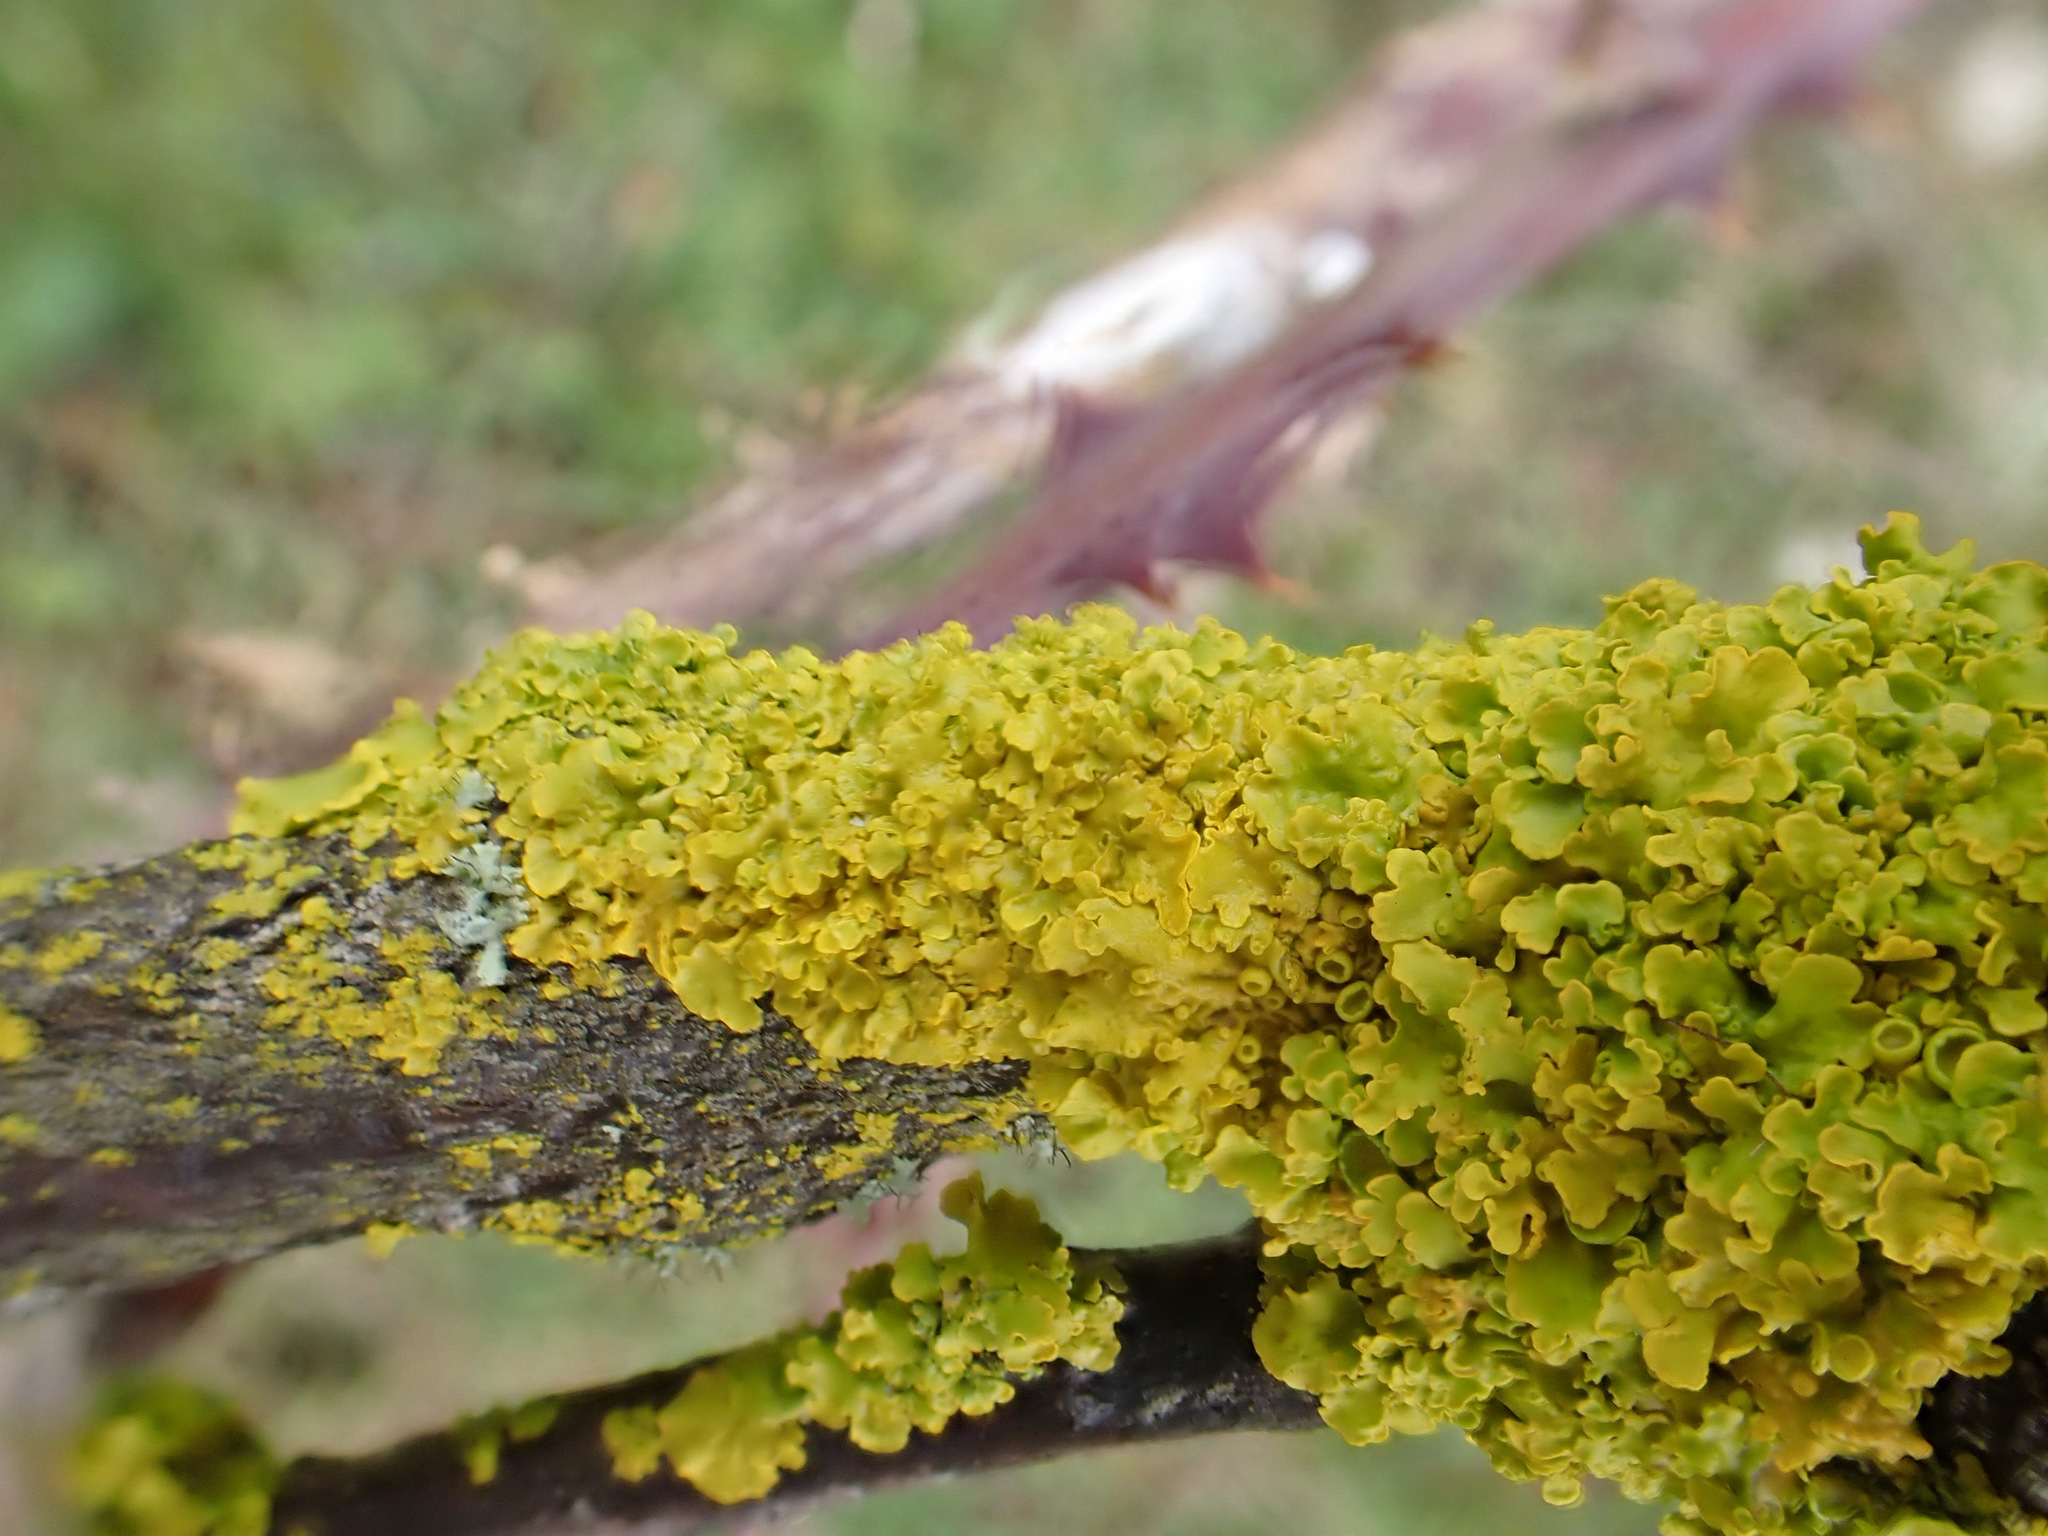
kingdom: Fungi
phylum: Ascomycota
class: Lecanoromycetes
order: Teloschistales
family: Teloschistaceae
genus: Xanthoria
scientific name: Xanthoria parietina
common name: Common orange lichen
